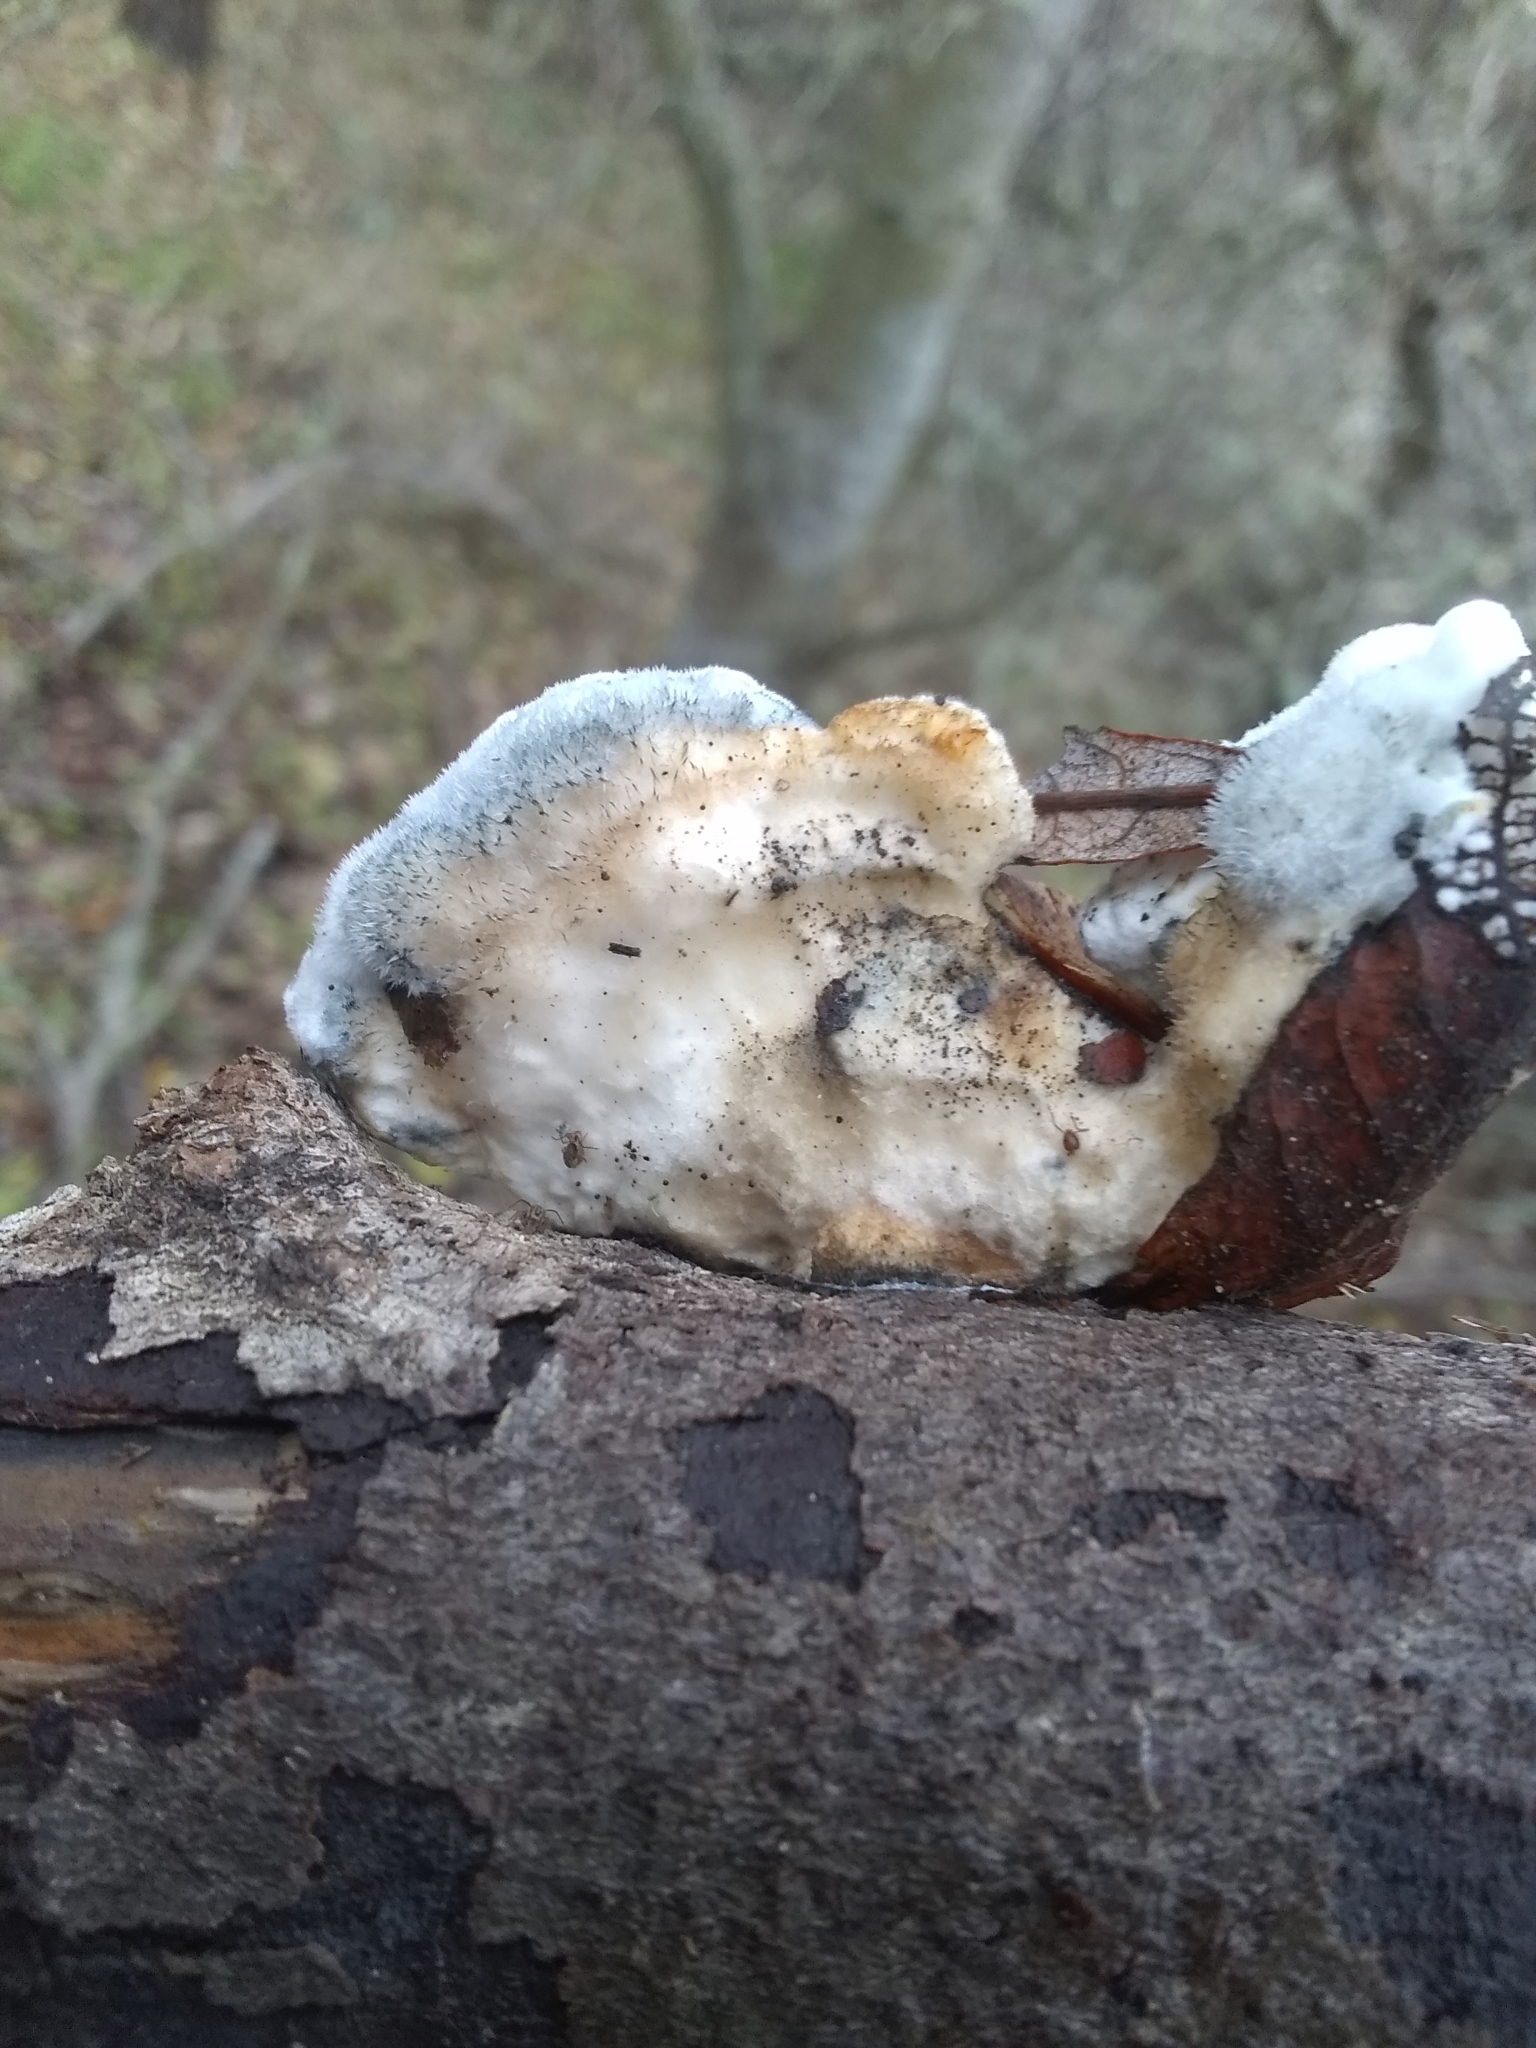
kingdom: Fungi
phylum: Basidiomycota
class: Agaricomycetes
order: Polyporales
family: Polyporaceae
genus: Cyanosporus
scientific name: Cyanosporus caesius
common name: Blue cheese polypore
